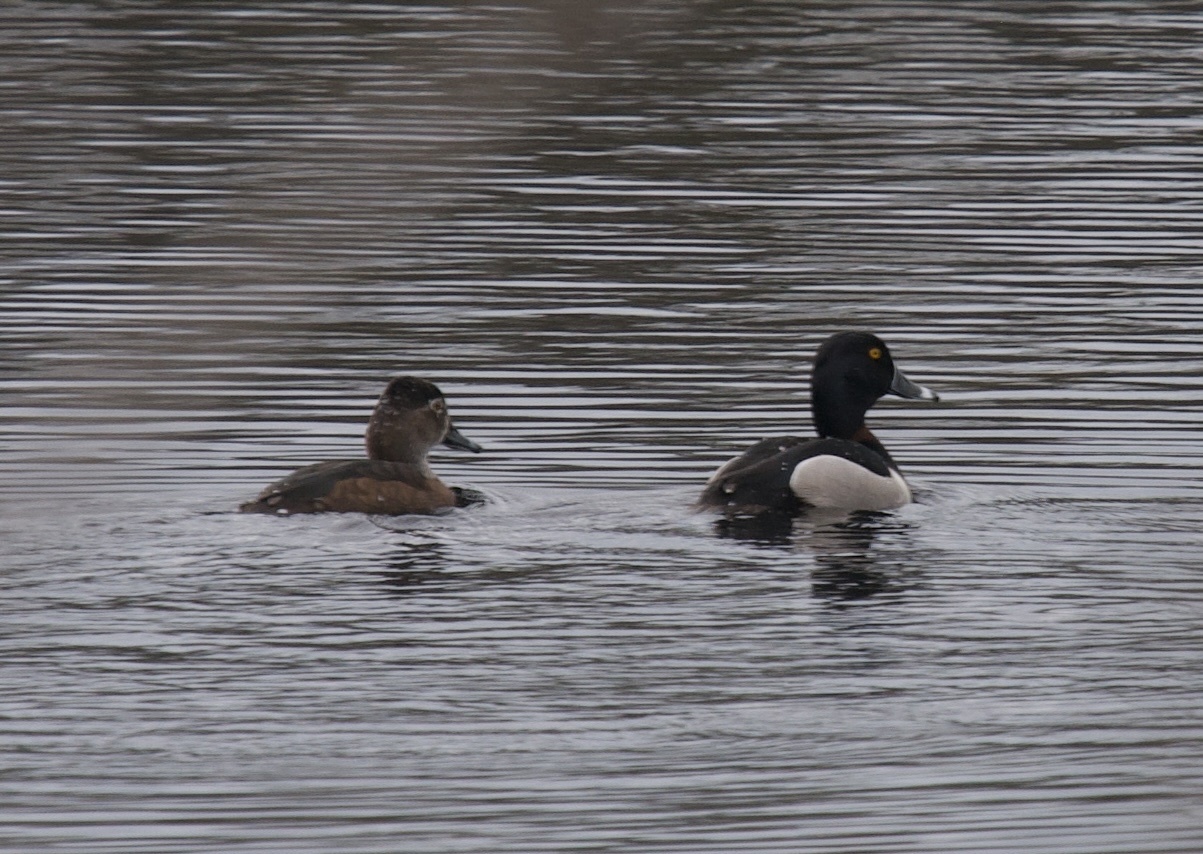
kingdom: Animalia
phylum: Chordata
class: Aves
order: Anseriformes
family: Anatidae
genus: Aythya
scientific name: Aythya collaris
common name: Ring-necked duck
